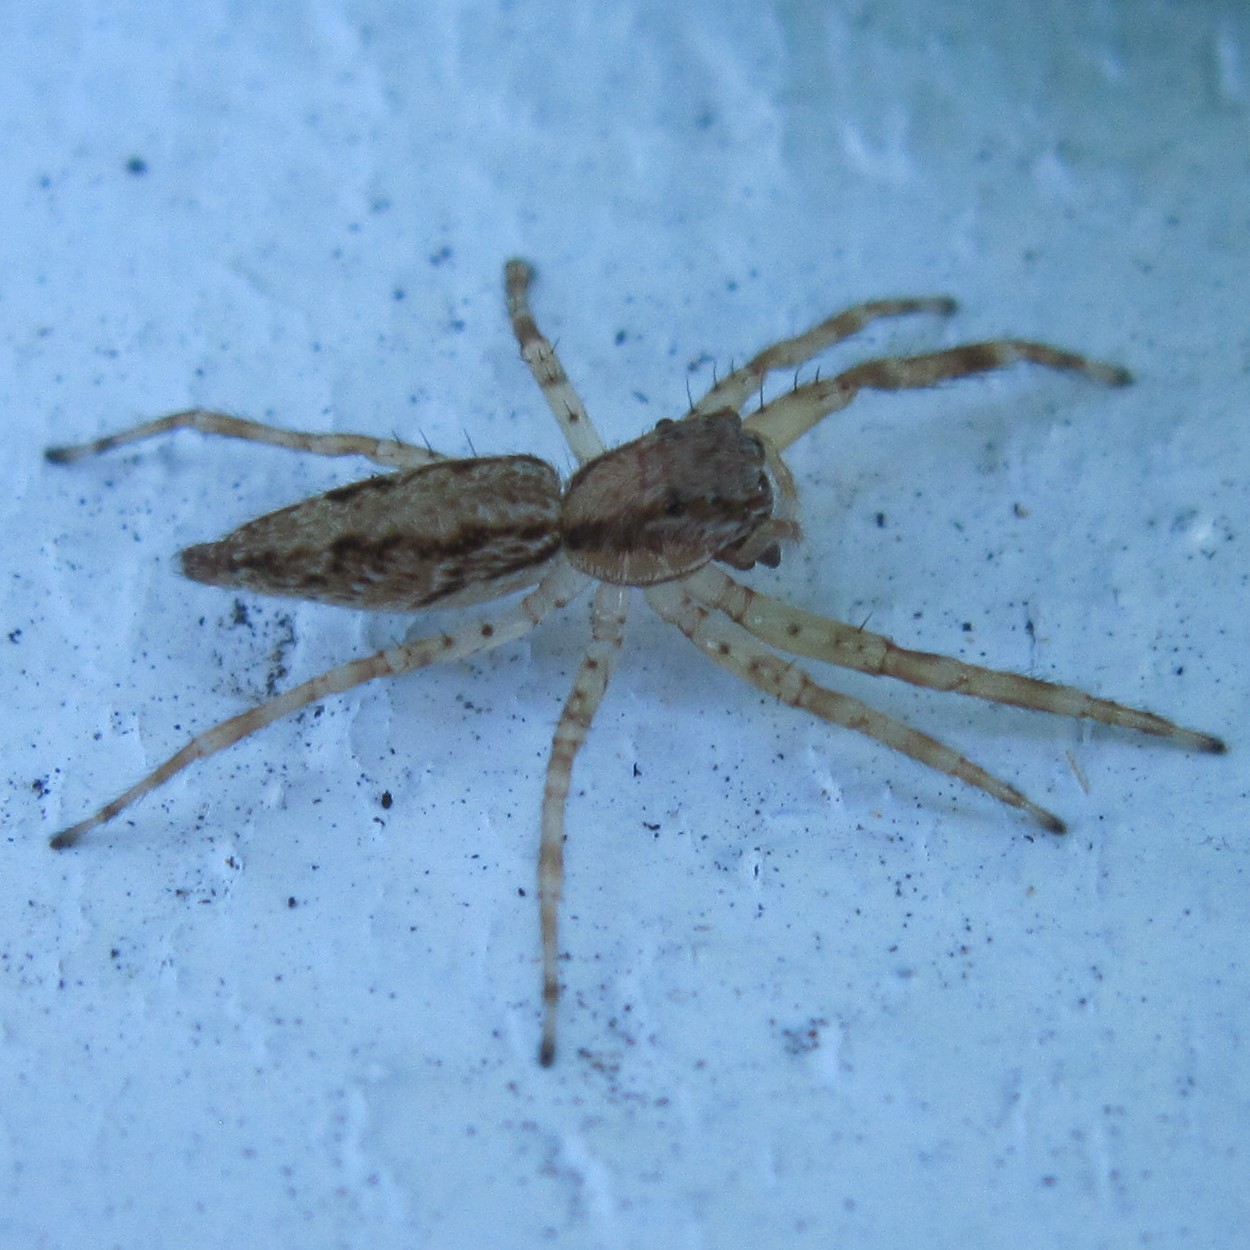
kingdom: Animalia
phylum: Arthropoda
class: Arachnida
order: Araneae
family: Salticidae
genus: Helpis
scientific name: Helpis minitabunda
